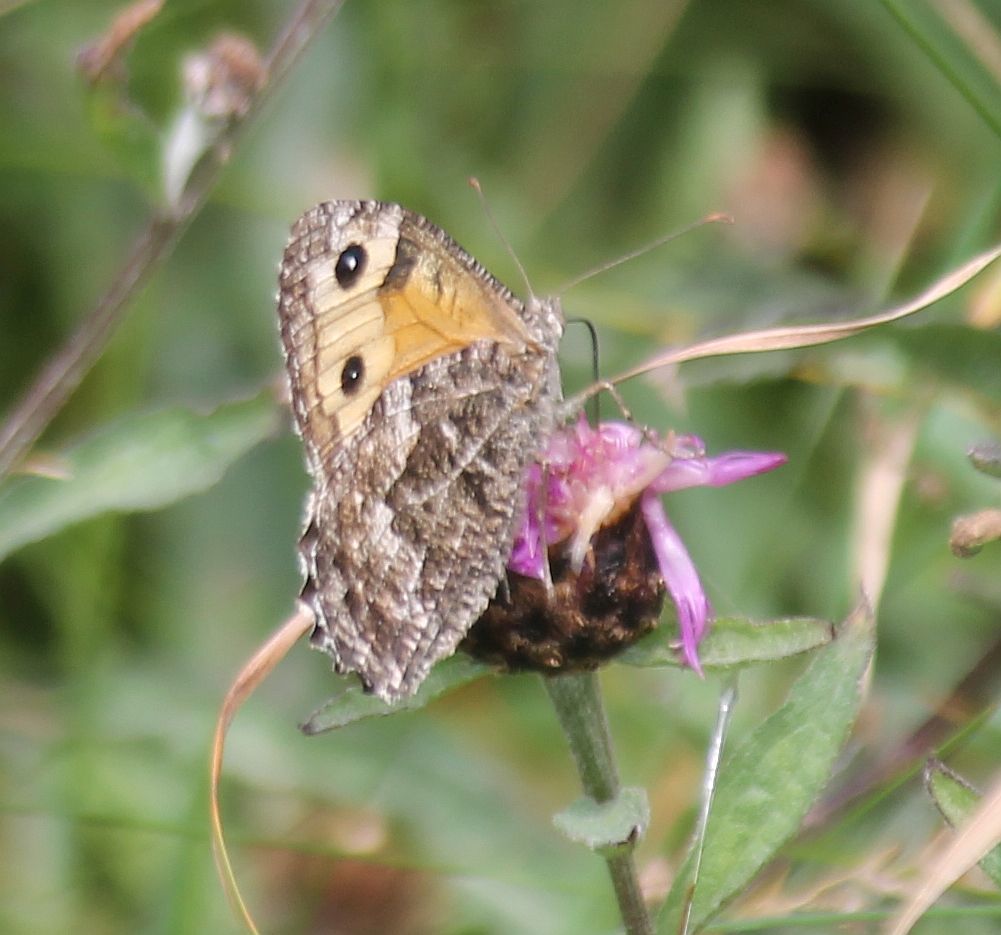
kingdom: Animalia
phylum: Arthropoda
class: Insecta
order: Lepidoptera
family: Nymphalidae
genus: Hipparchia
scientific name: Hipparchia semele
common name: Grayling
